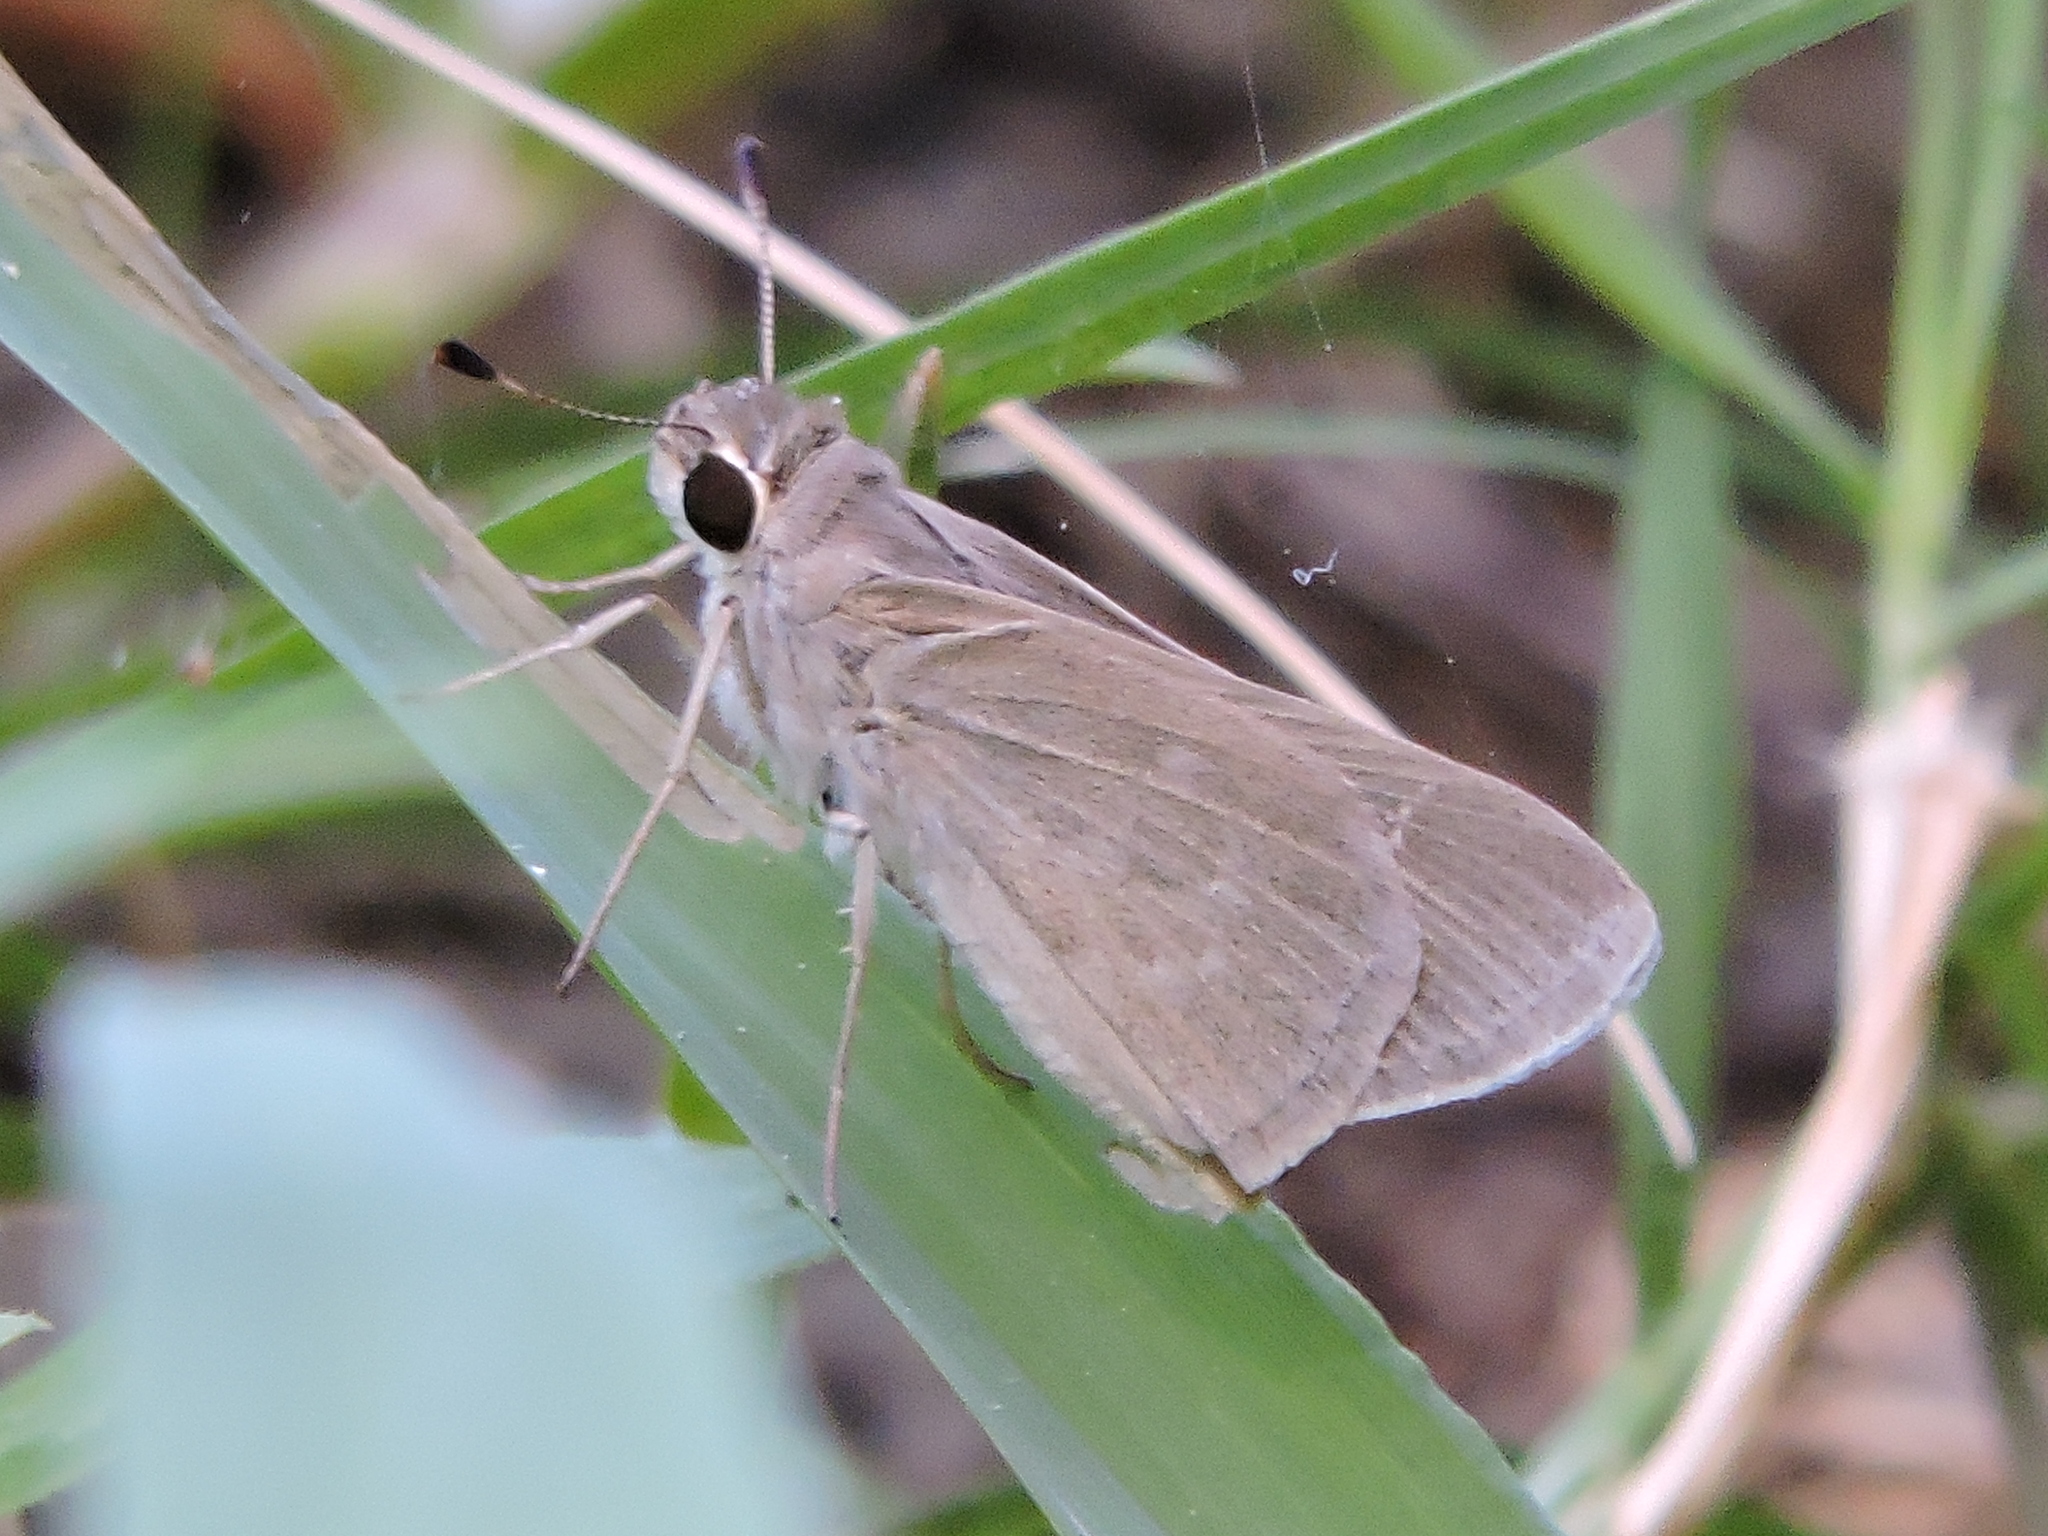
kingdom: Animalia
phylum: Arthropoda
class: Insecta
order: Lepidoptera
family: Hesperiidae
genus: Lerodea
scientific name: Lerodea eufala
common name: Eufala skipper
